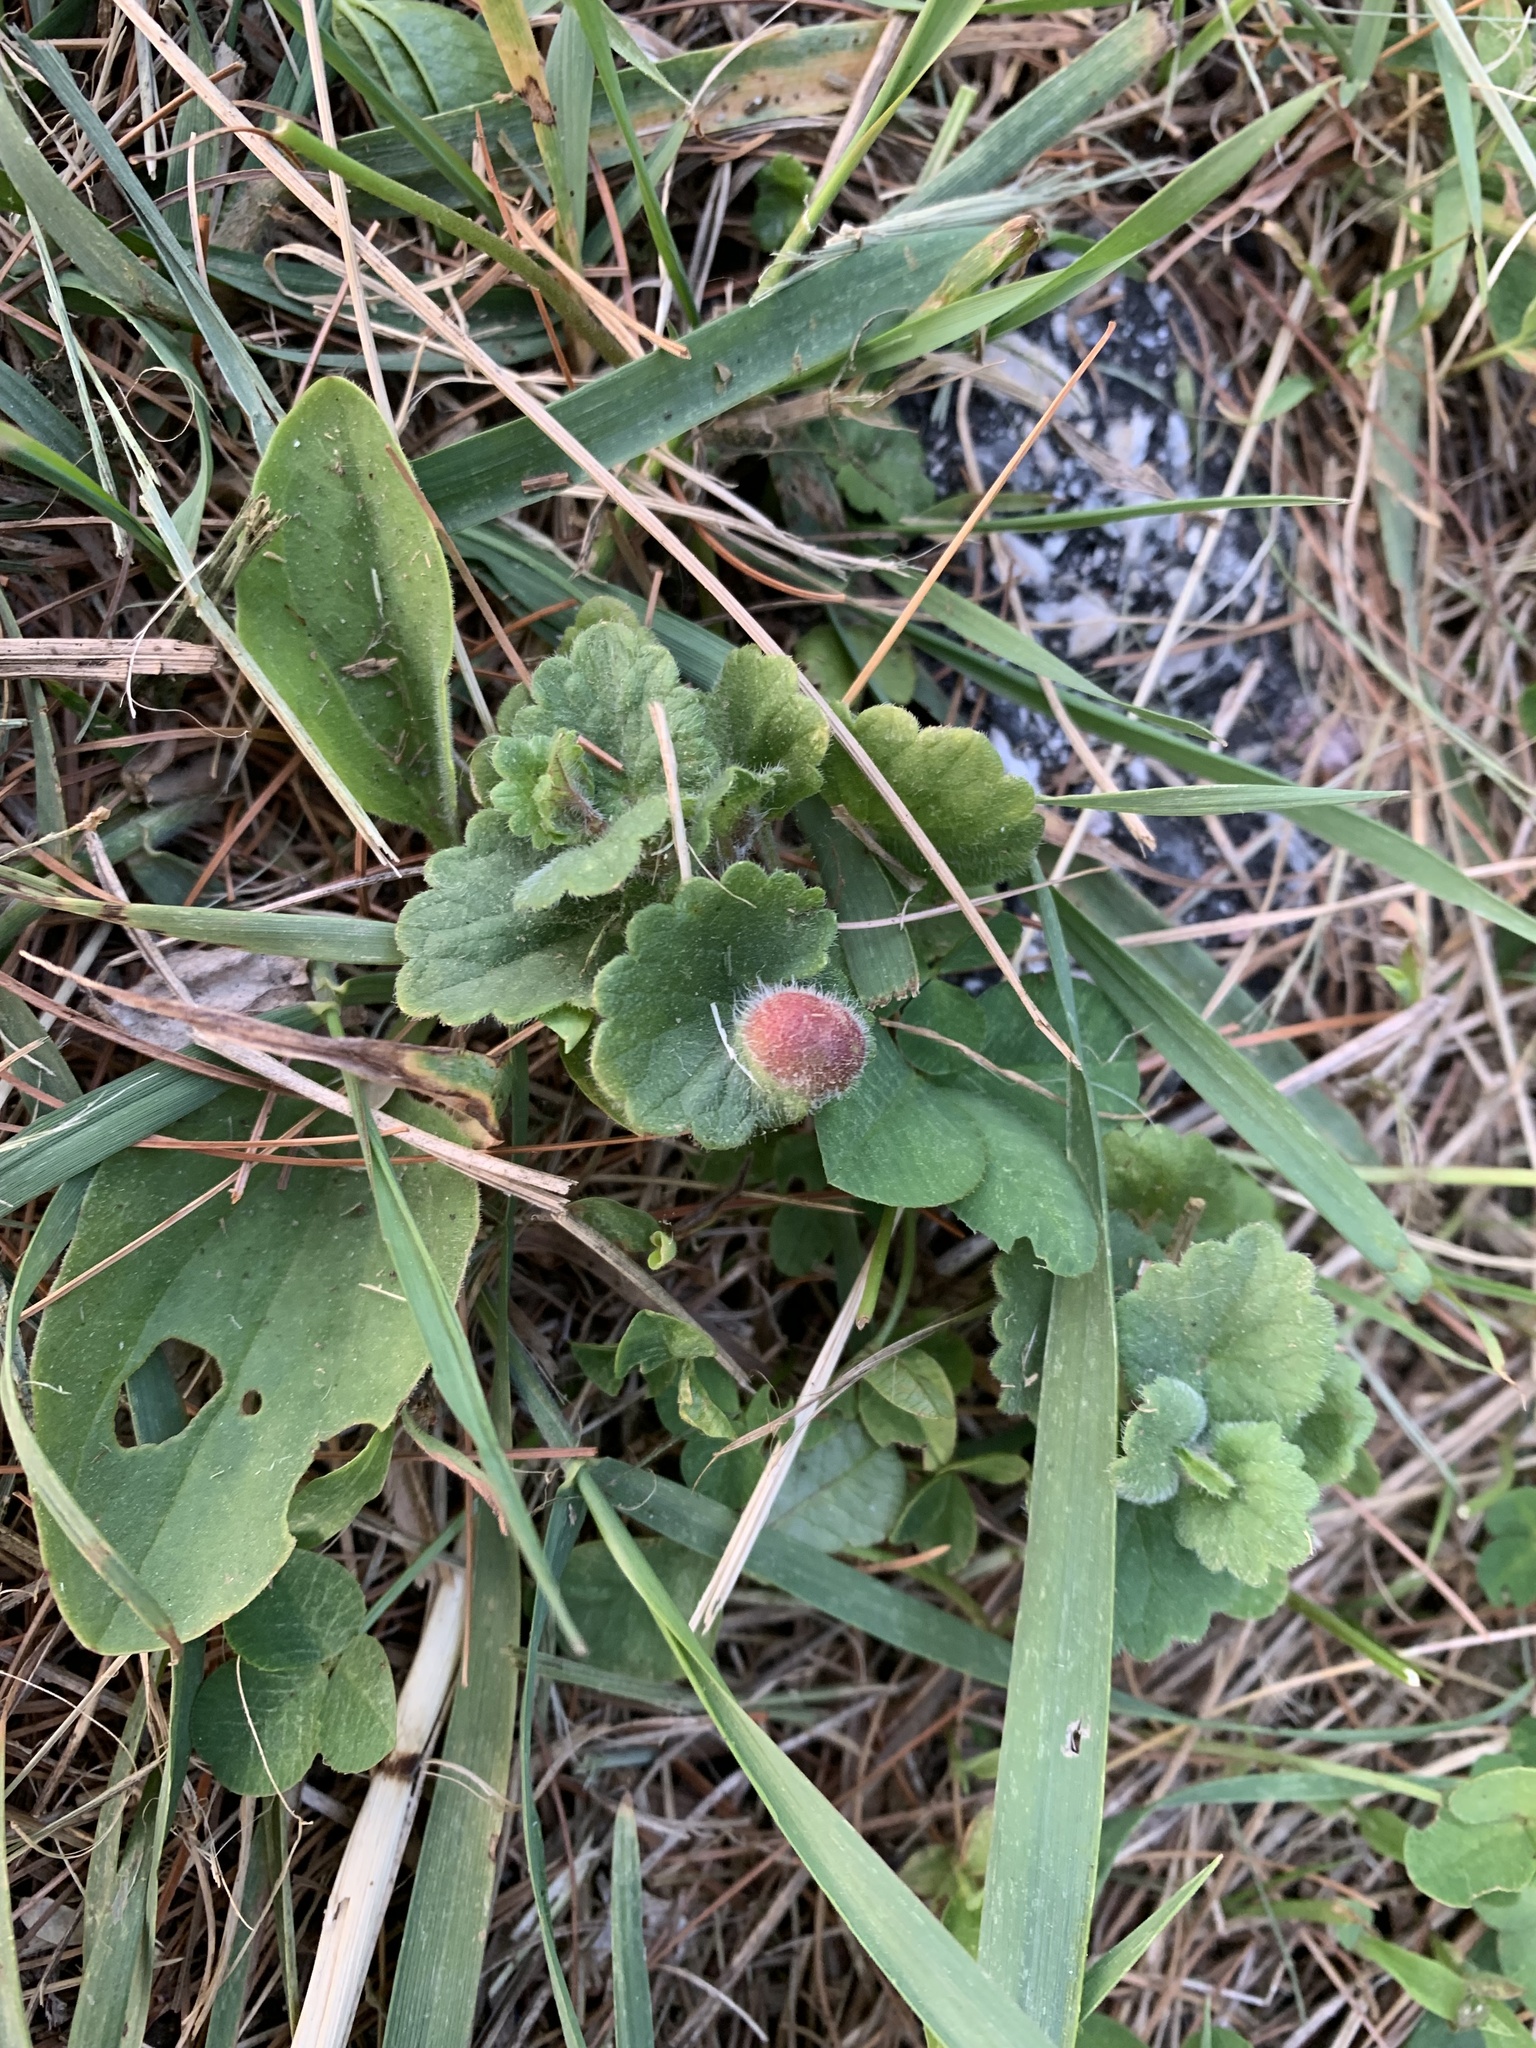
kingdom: Animalia
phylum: Arthropoda
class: Insecta
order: Hymenoptera
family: Cynipidae
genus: Liposthenes
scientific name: Liposthenes glechomae
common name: Gall wasp
